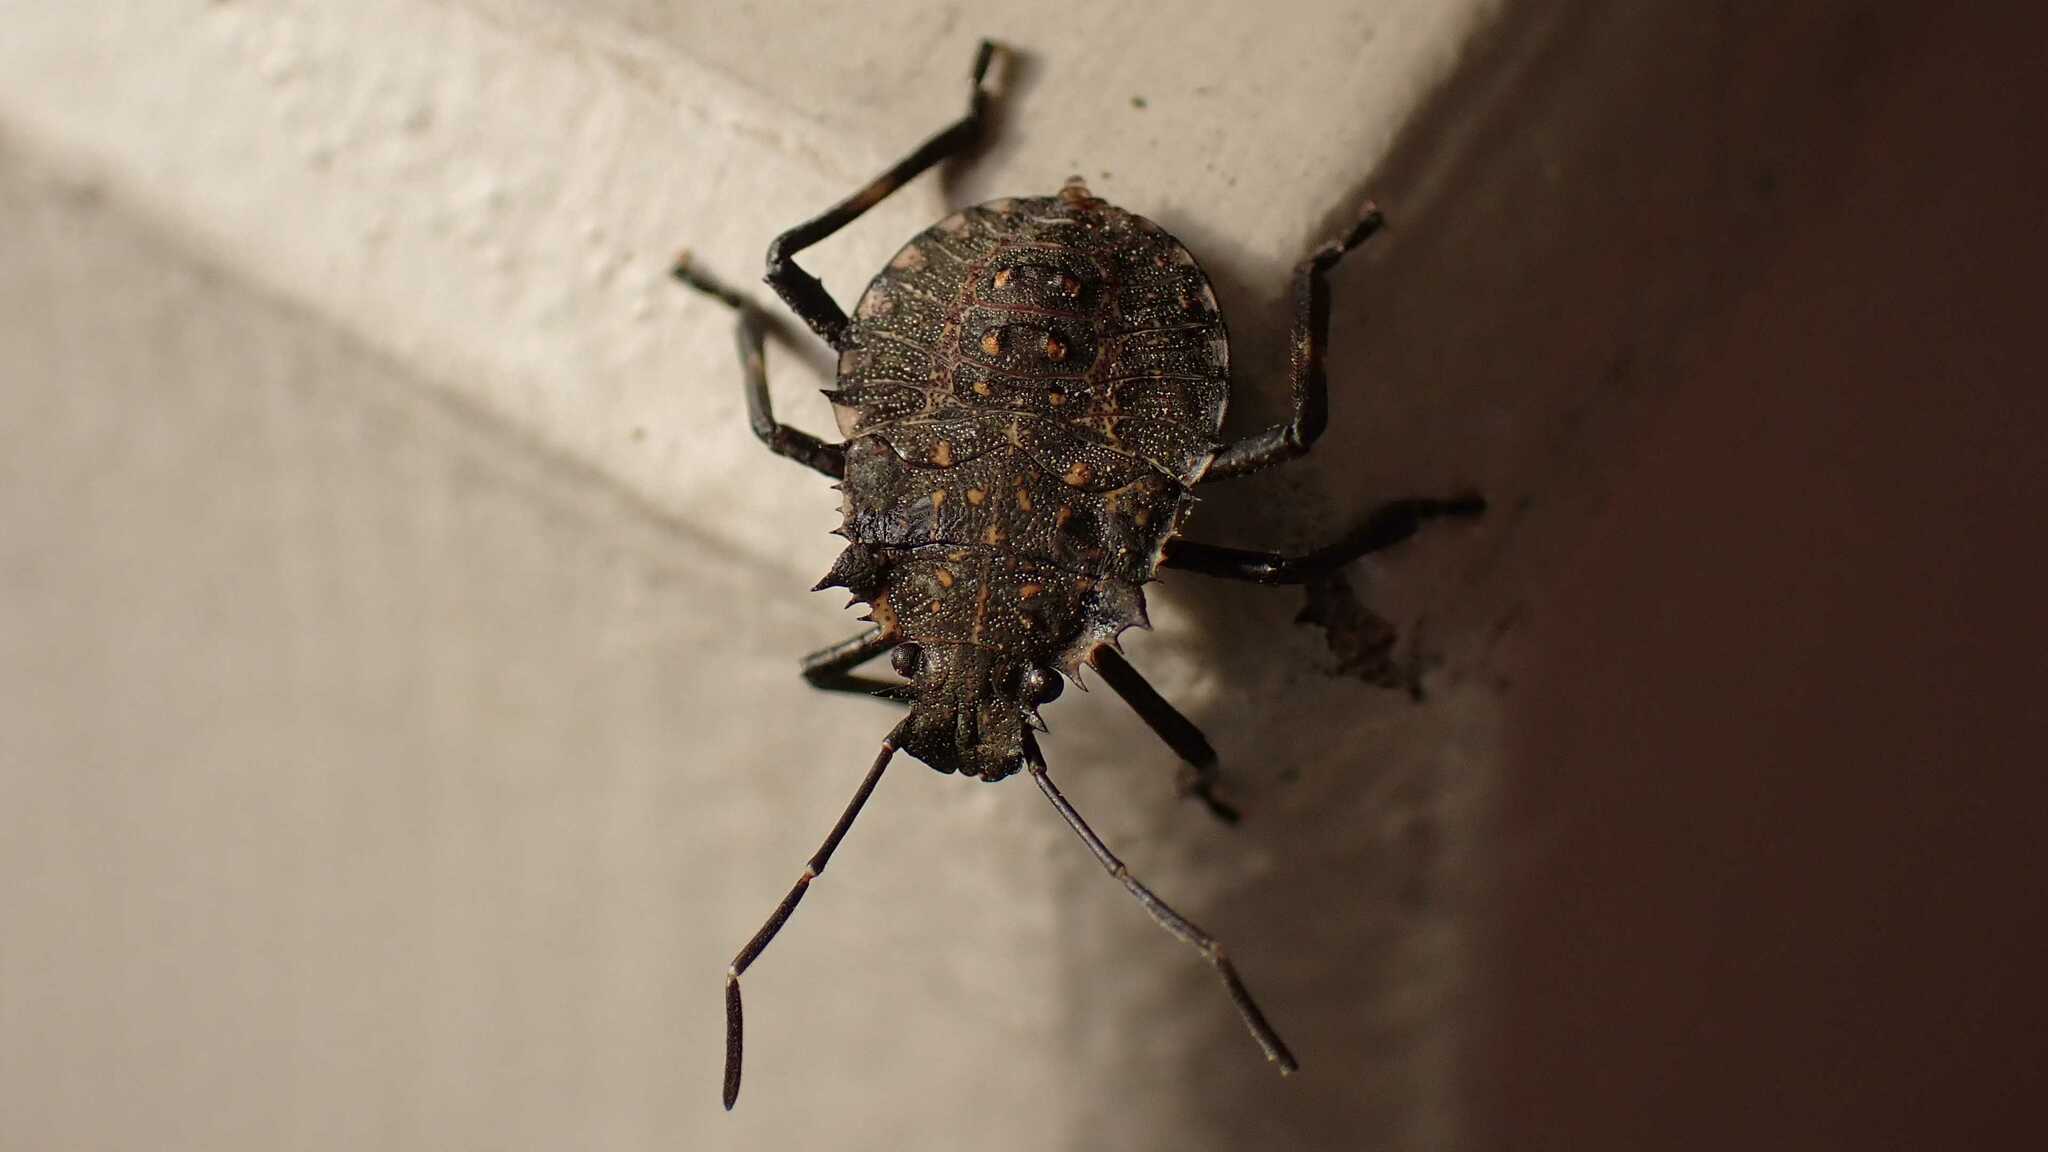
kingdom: Animalia
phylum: Arthropoda
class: Insecta
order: Hemiptera
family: Pentatomidae
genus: Halyomorpha
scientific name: Halyomorpha halys
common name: Brown marmorated stink bug
